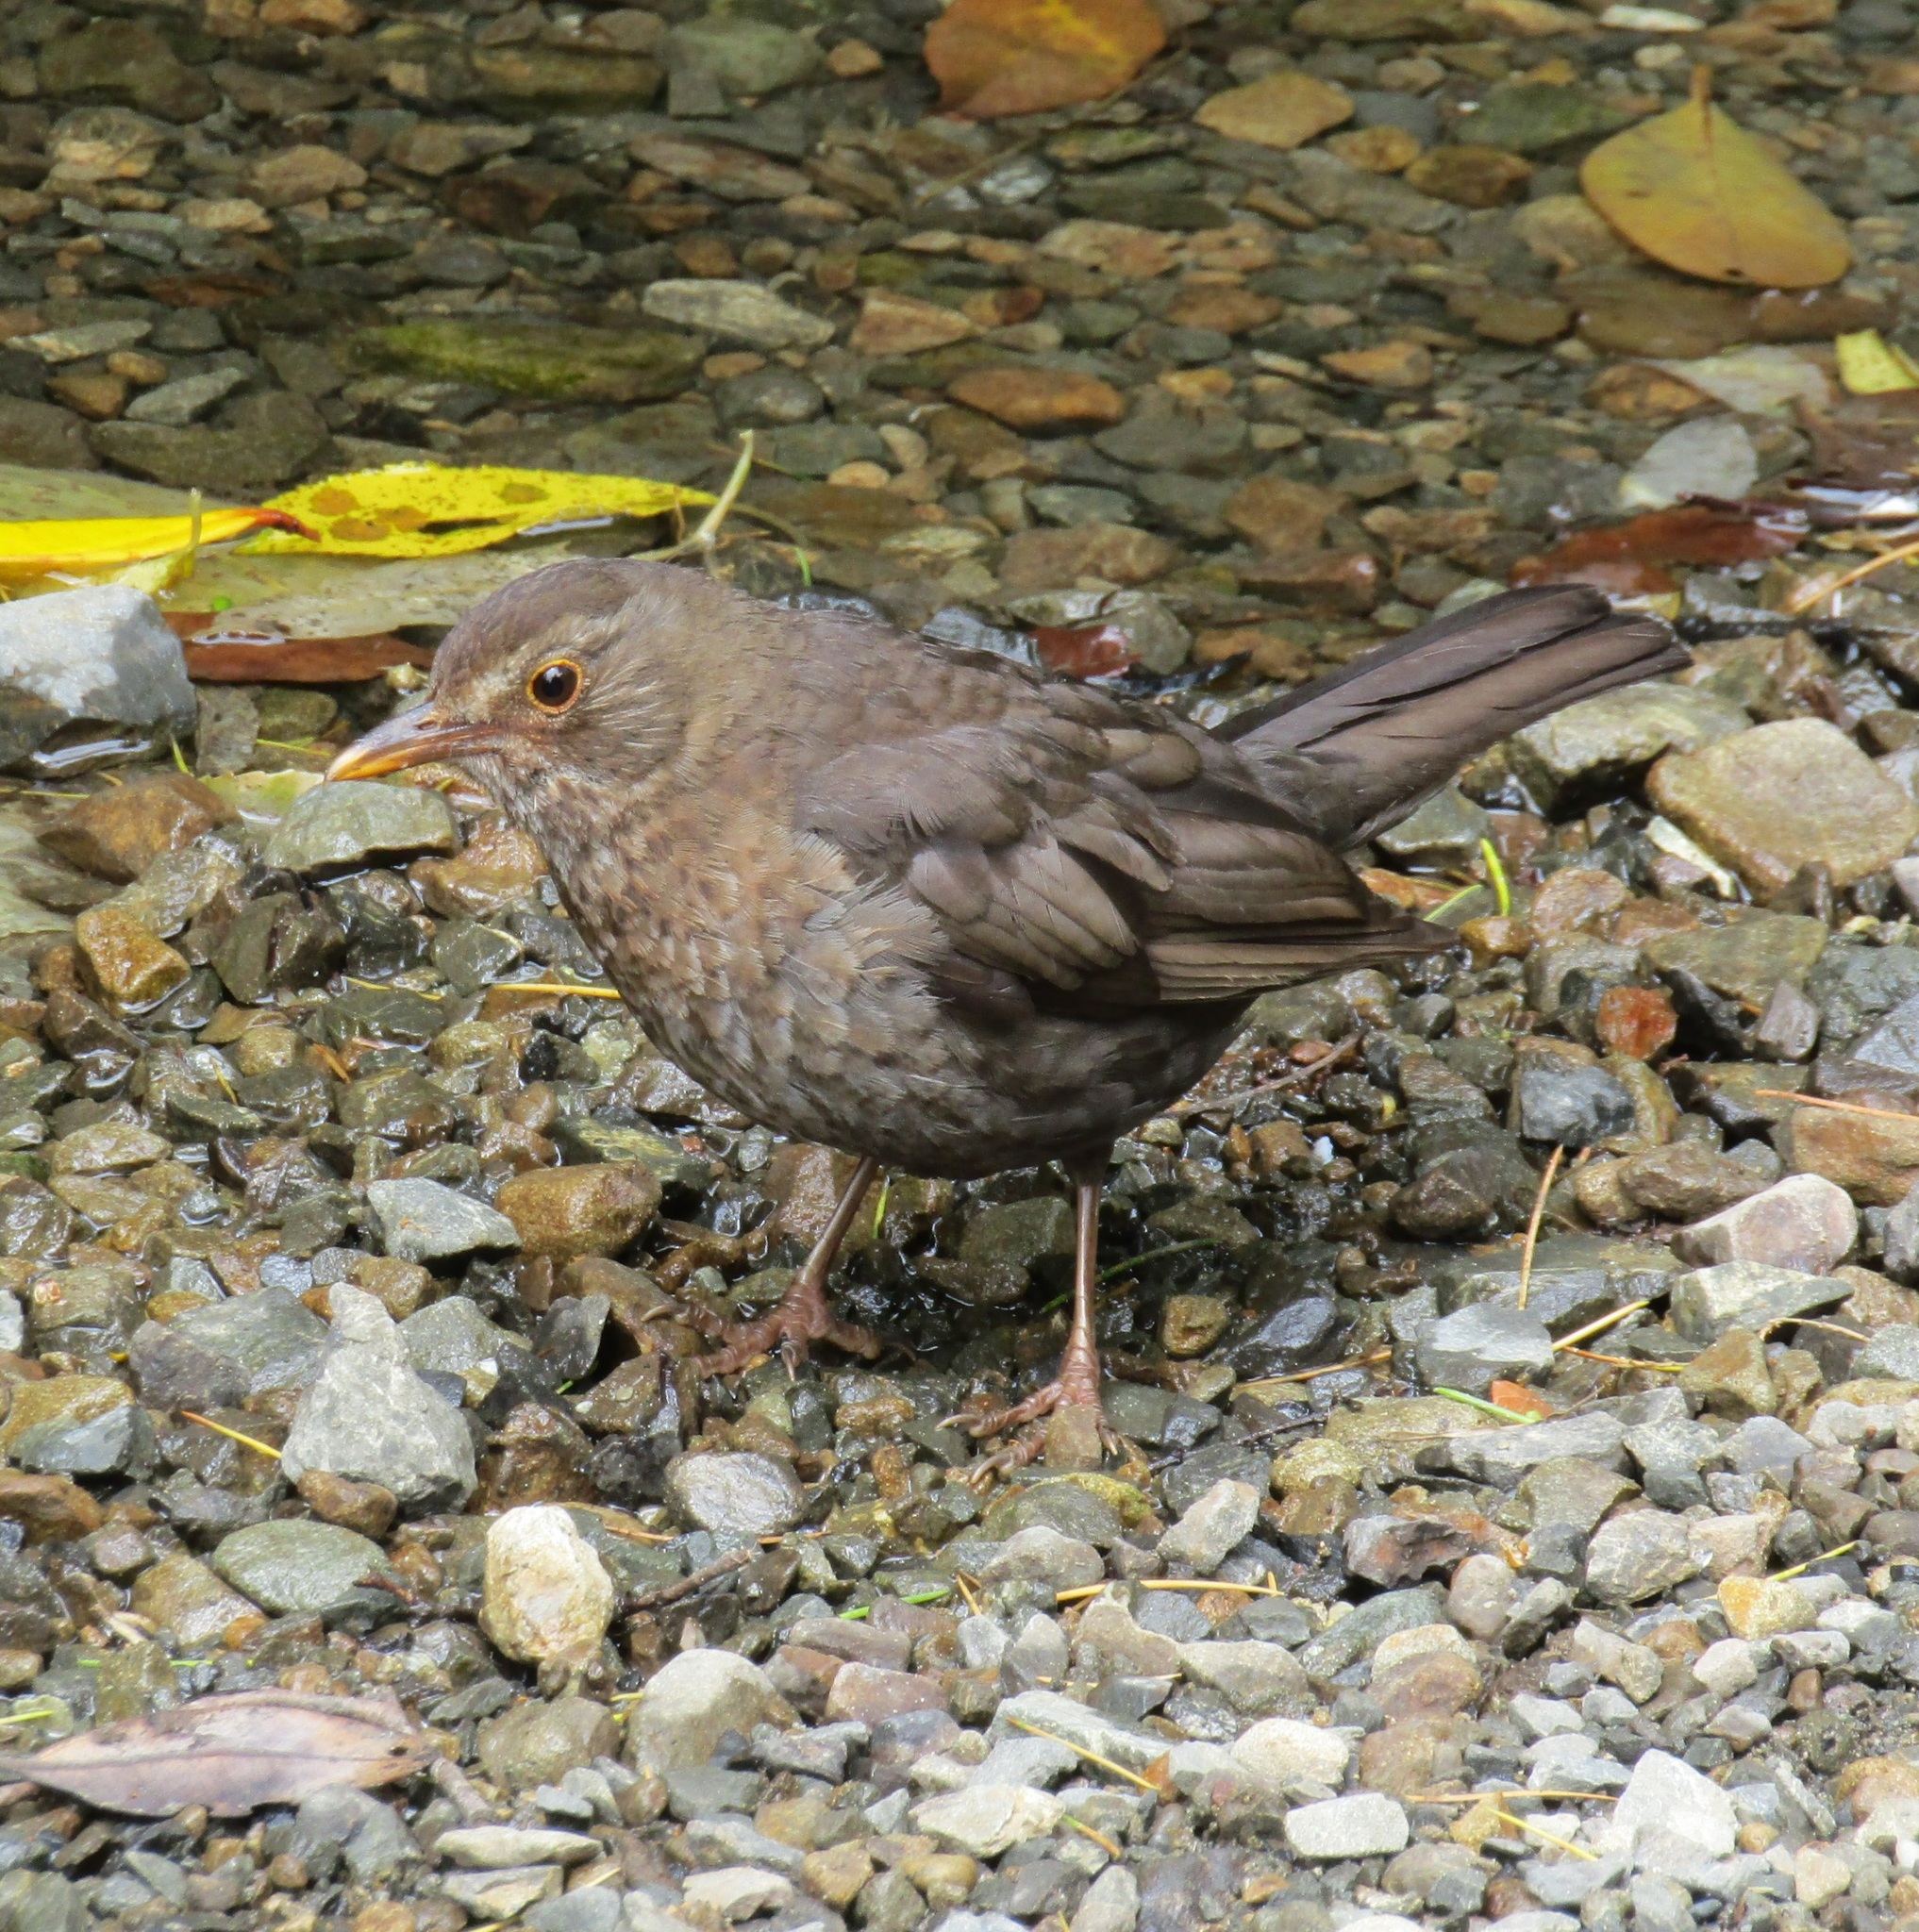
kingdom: Animalia
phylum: Chordata
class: Aves
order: Passeriformes
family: Turdidae
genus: Turdus
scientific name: Turdus merula
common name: Common blackbird
